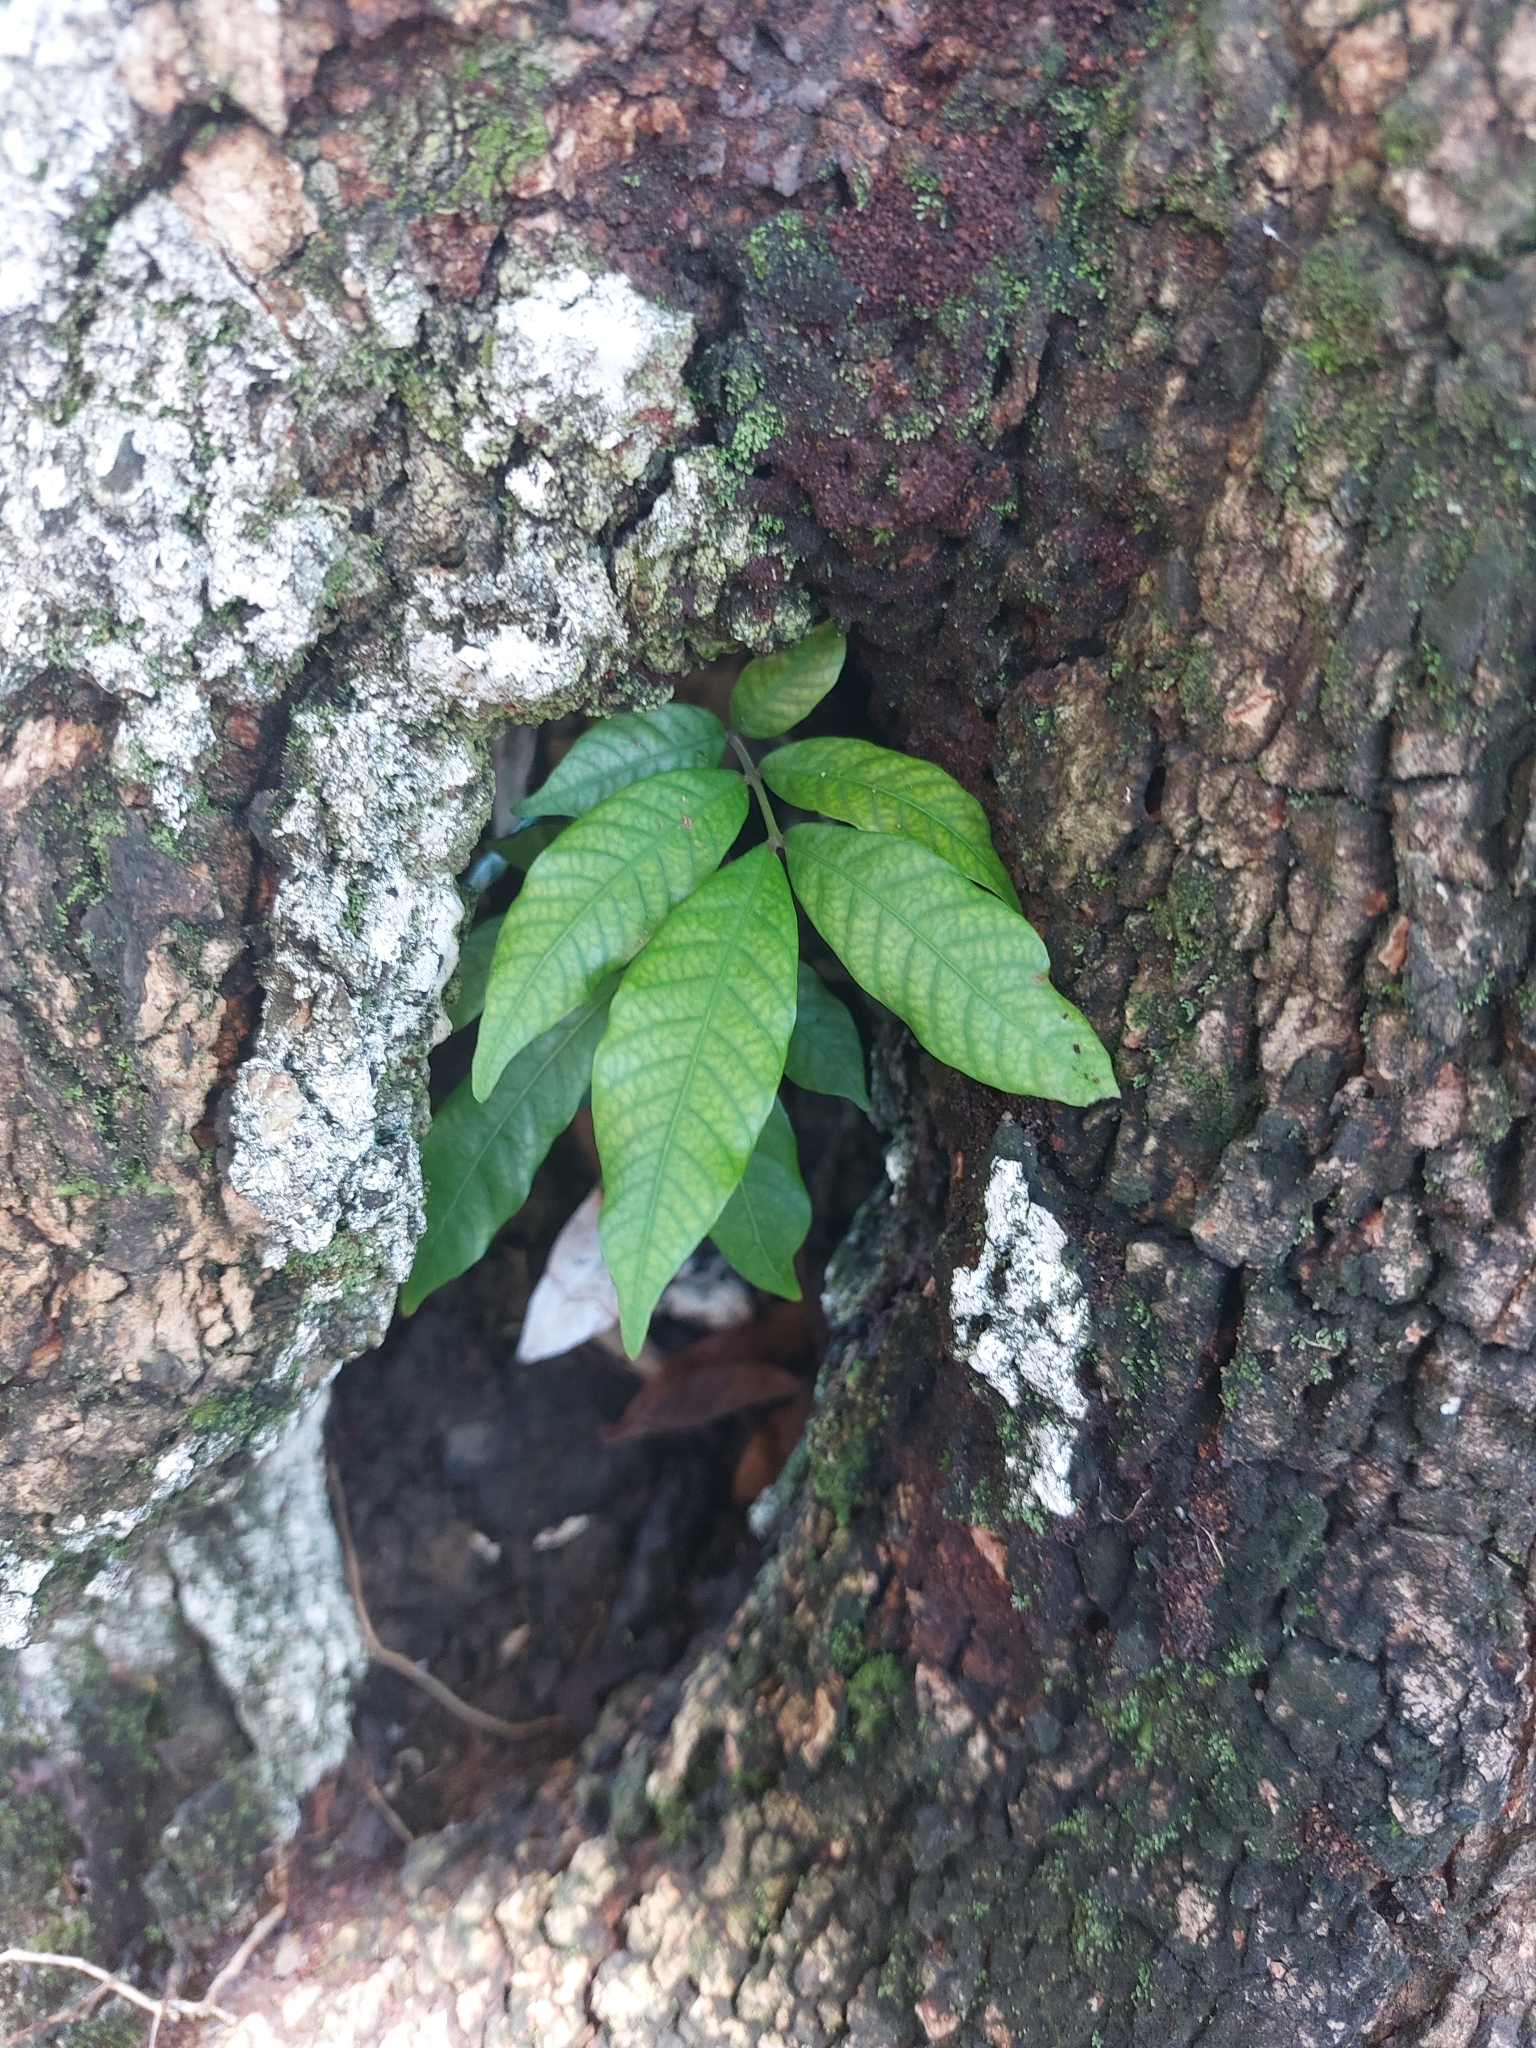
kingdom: Plantae
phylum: Tracheophyta
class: Magnoliopsida
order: Sapindales
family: Sapindaceae
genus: Dimocarpus
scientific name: Dimocarpus longan
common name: Longan
